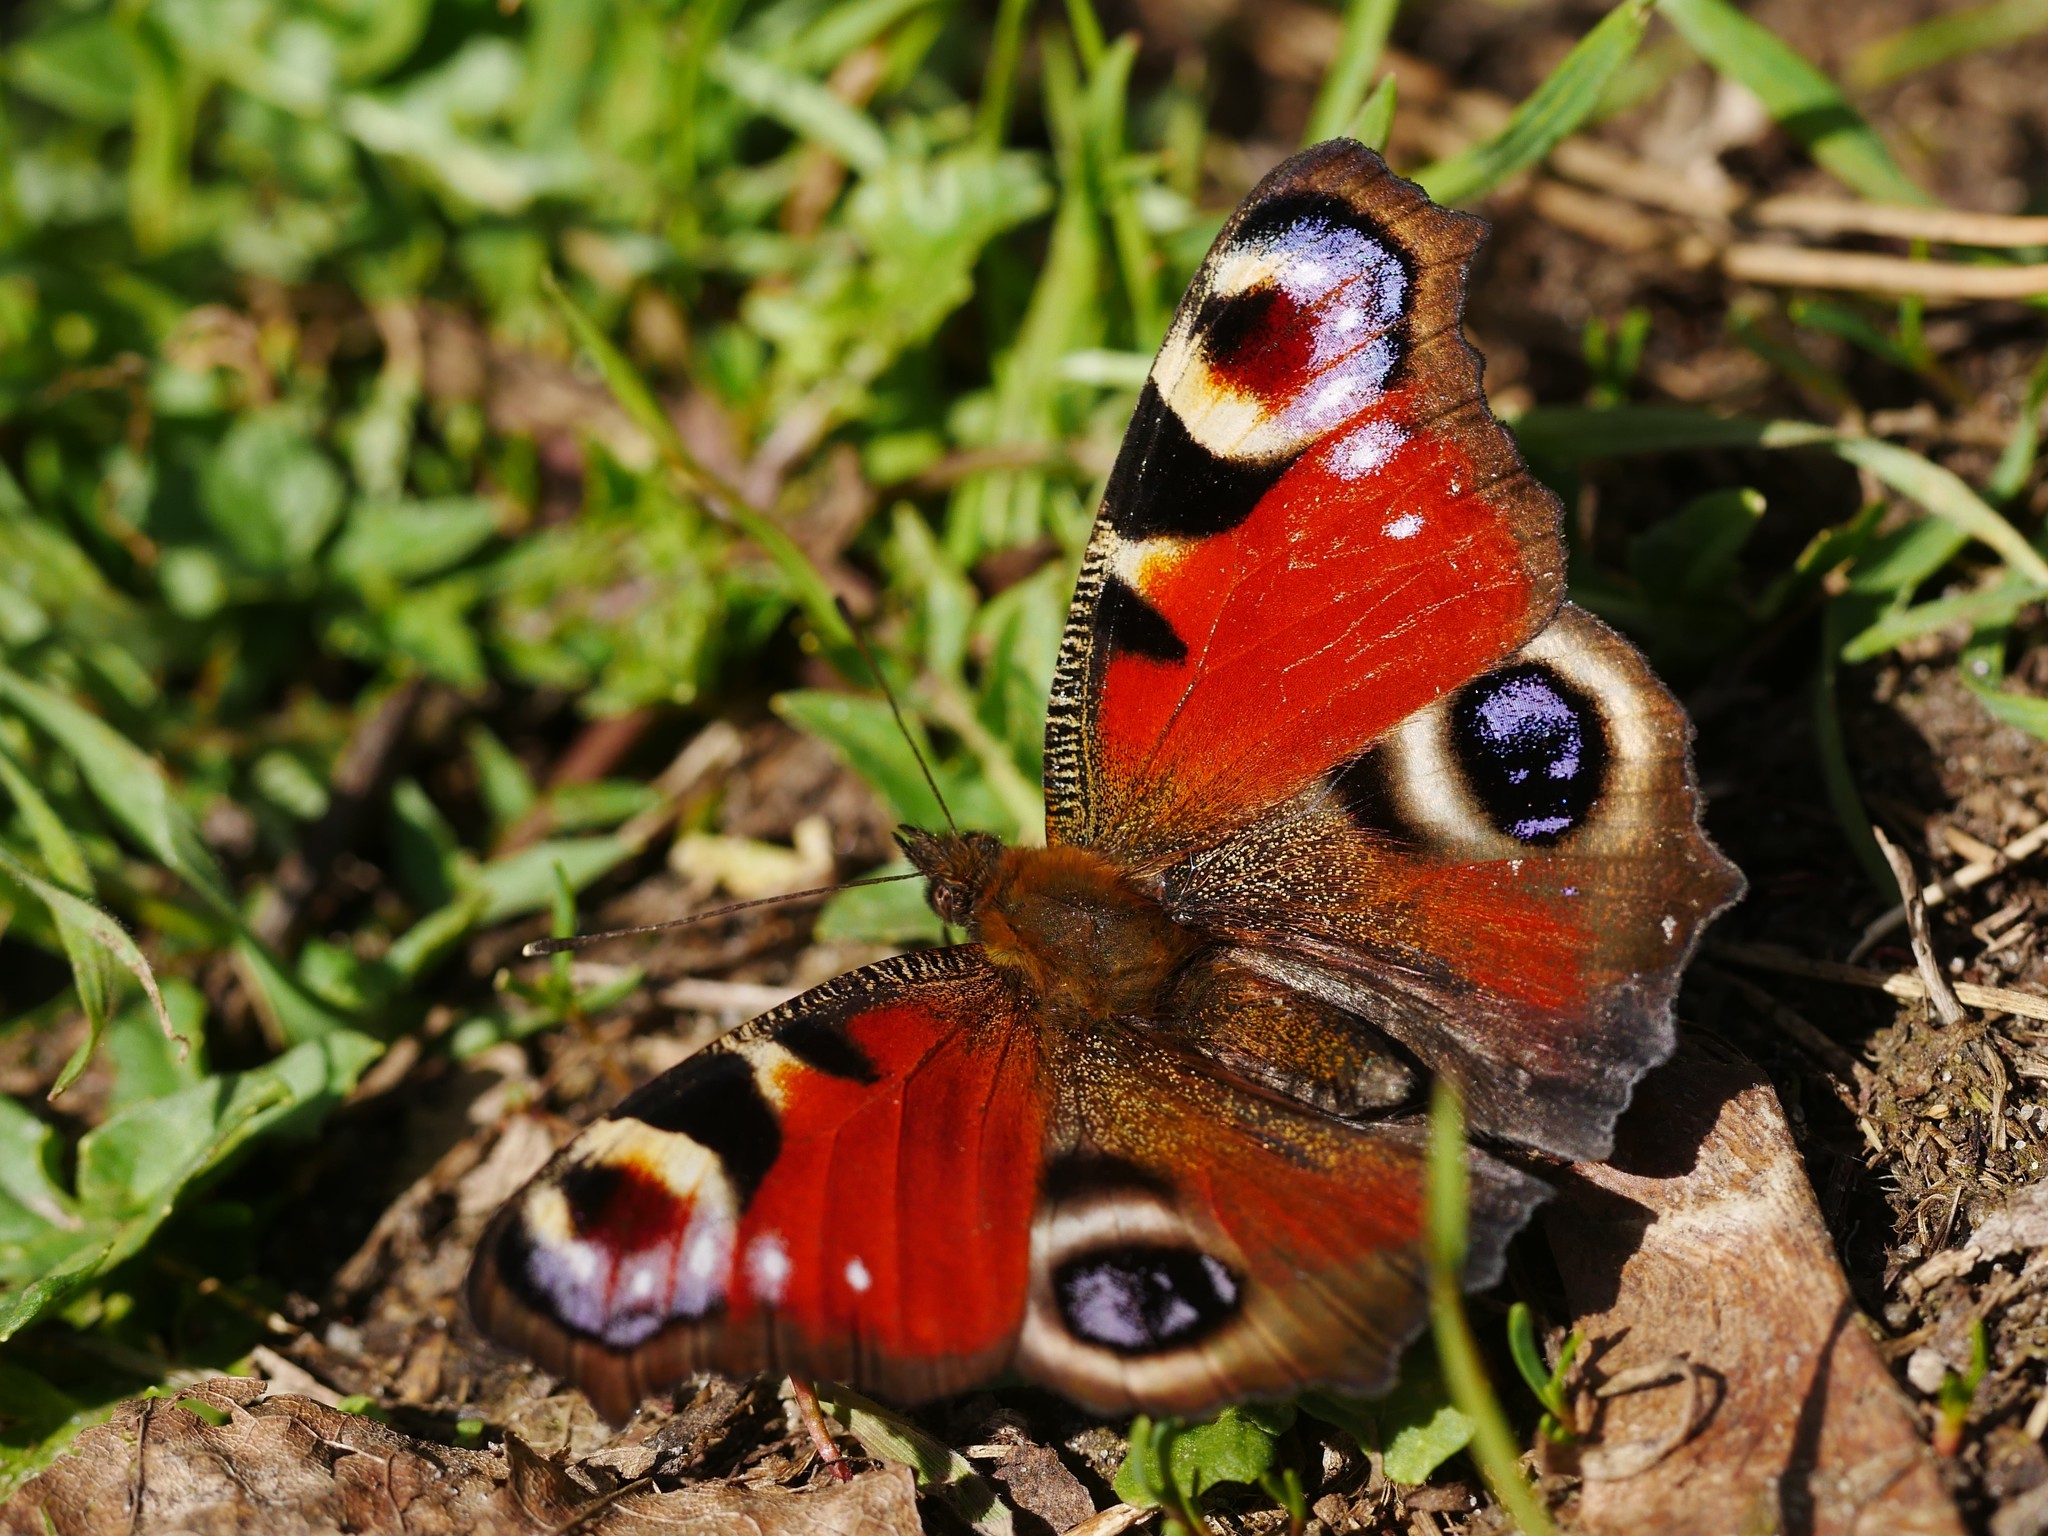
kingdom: Animalia
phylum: Arthropoda
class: Insecta
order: Lepidoptera
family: Nymphalidae
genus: Aglais
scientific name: Aglais io
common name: Peacock
